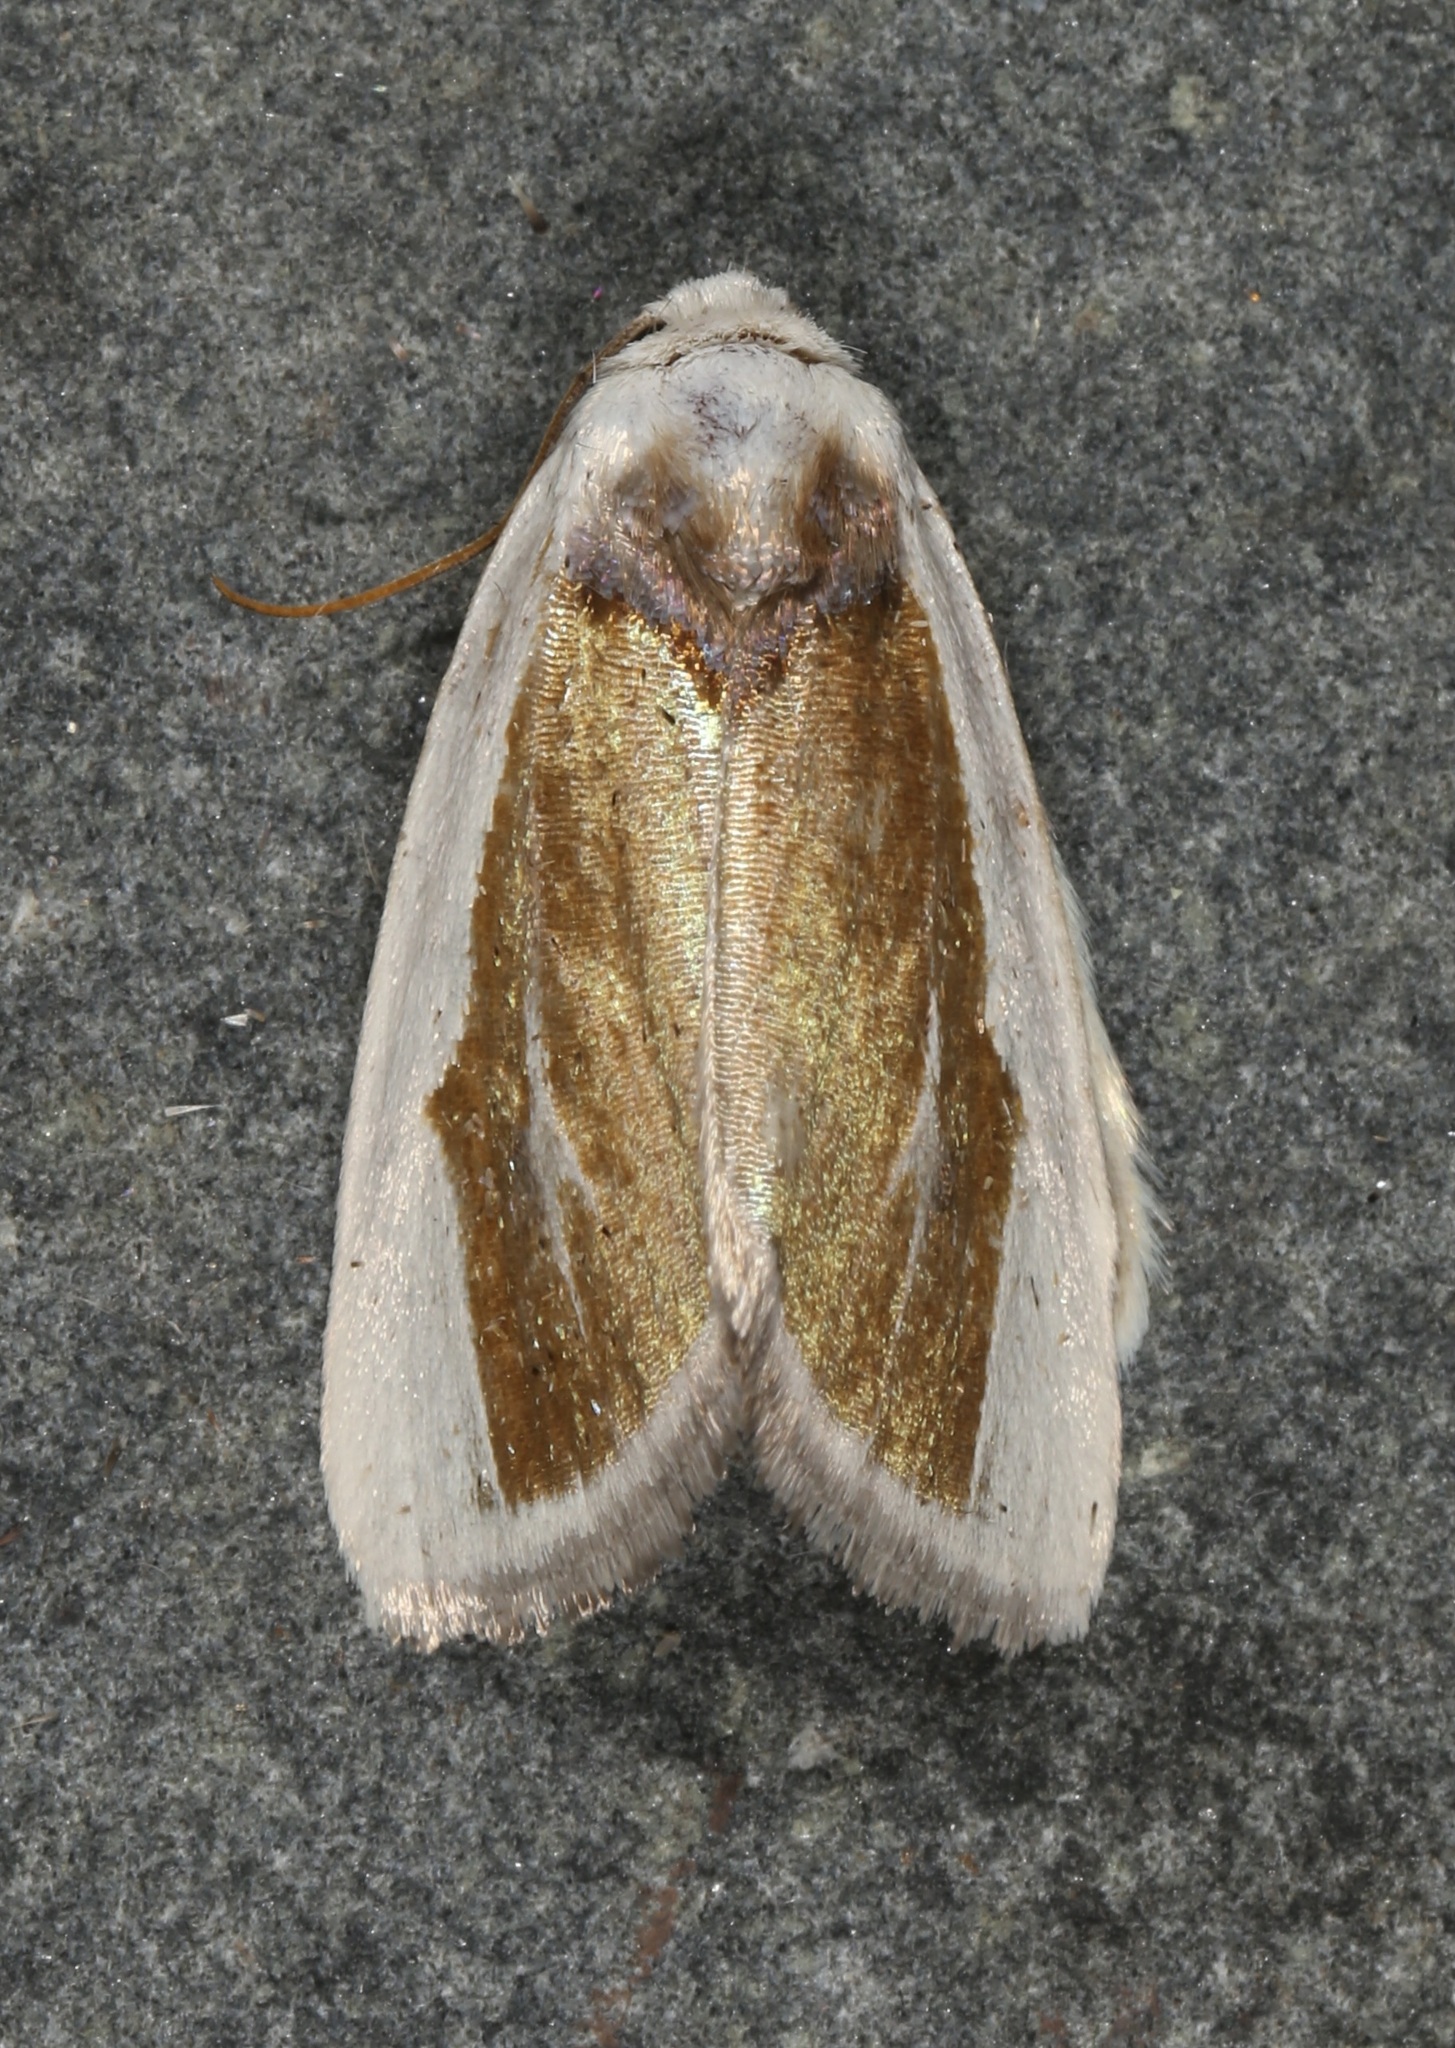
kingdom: Animalia
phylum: Arthropoda
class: Insecta
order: Lepidoptera
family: Noctuidae
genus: Neumoegenia
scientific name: Neumoegenia poetica
